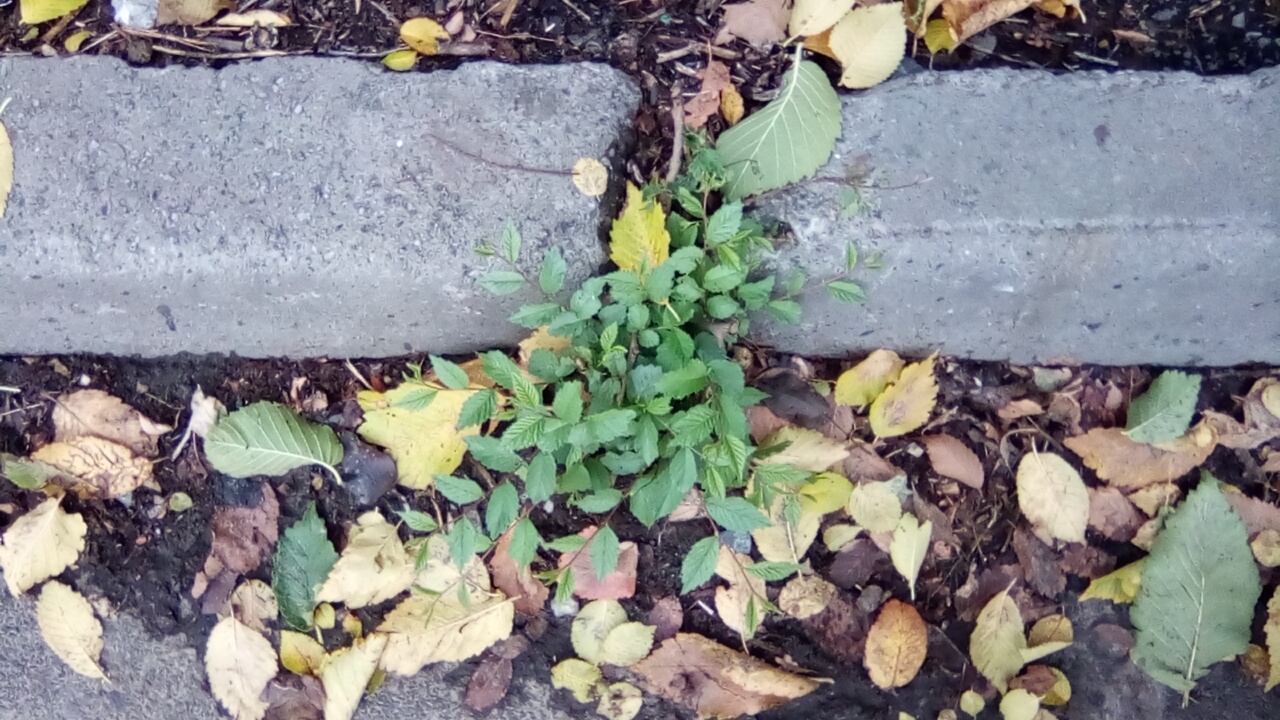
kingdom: Plantae
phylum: Tracheophyta
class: Magnoliopsida
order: Rosales
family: Ulmaceae
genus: Ulmus
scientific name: Ulmus pumila
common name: Siberian elm
